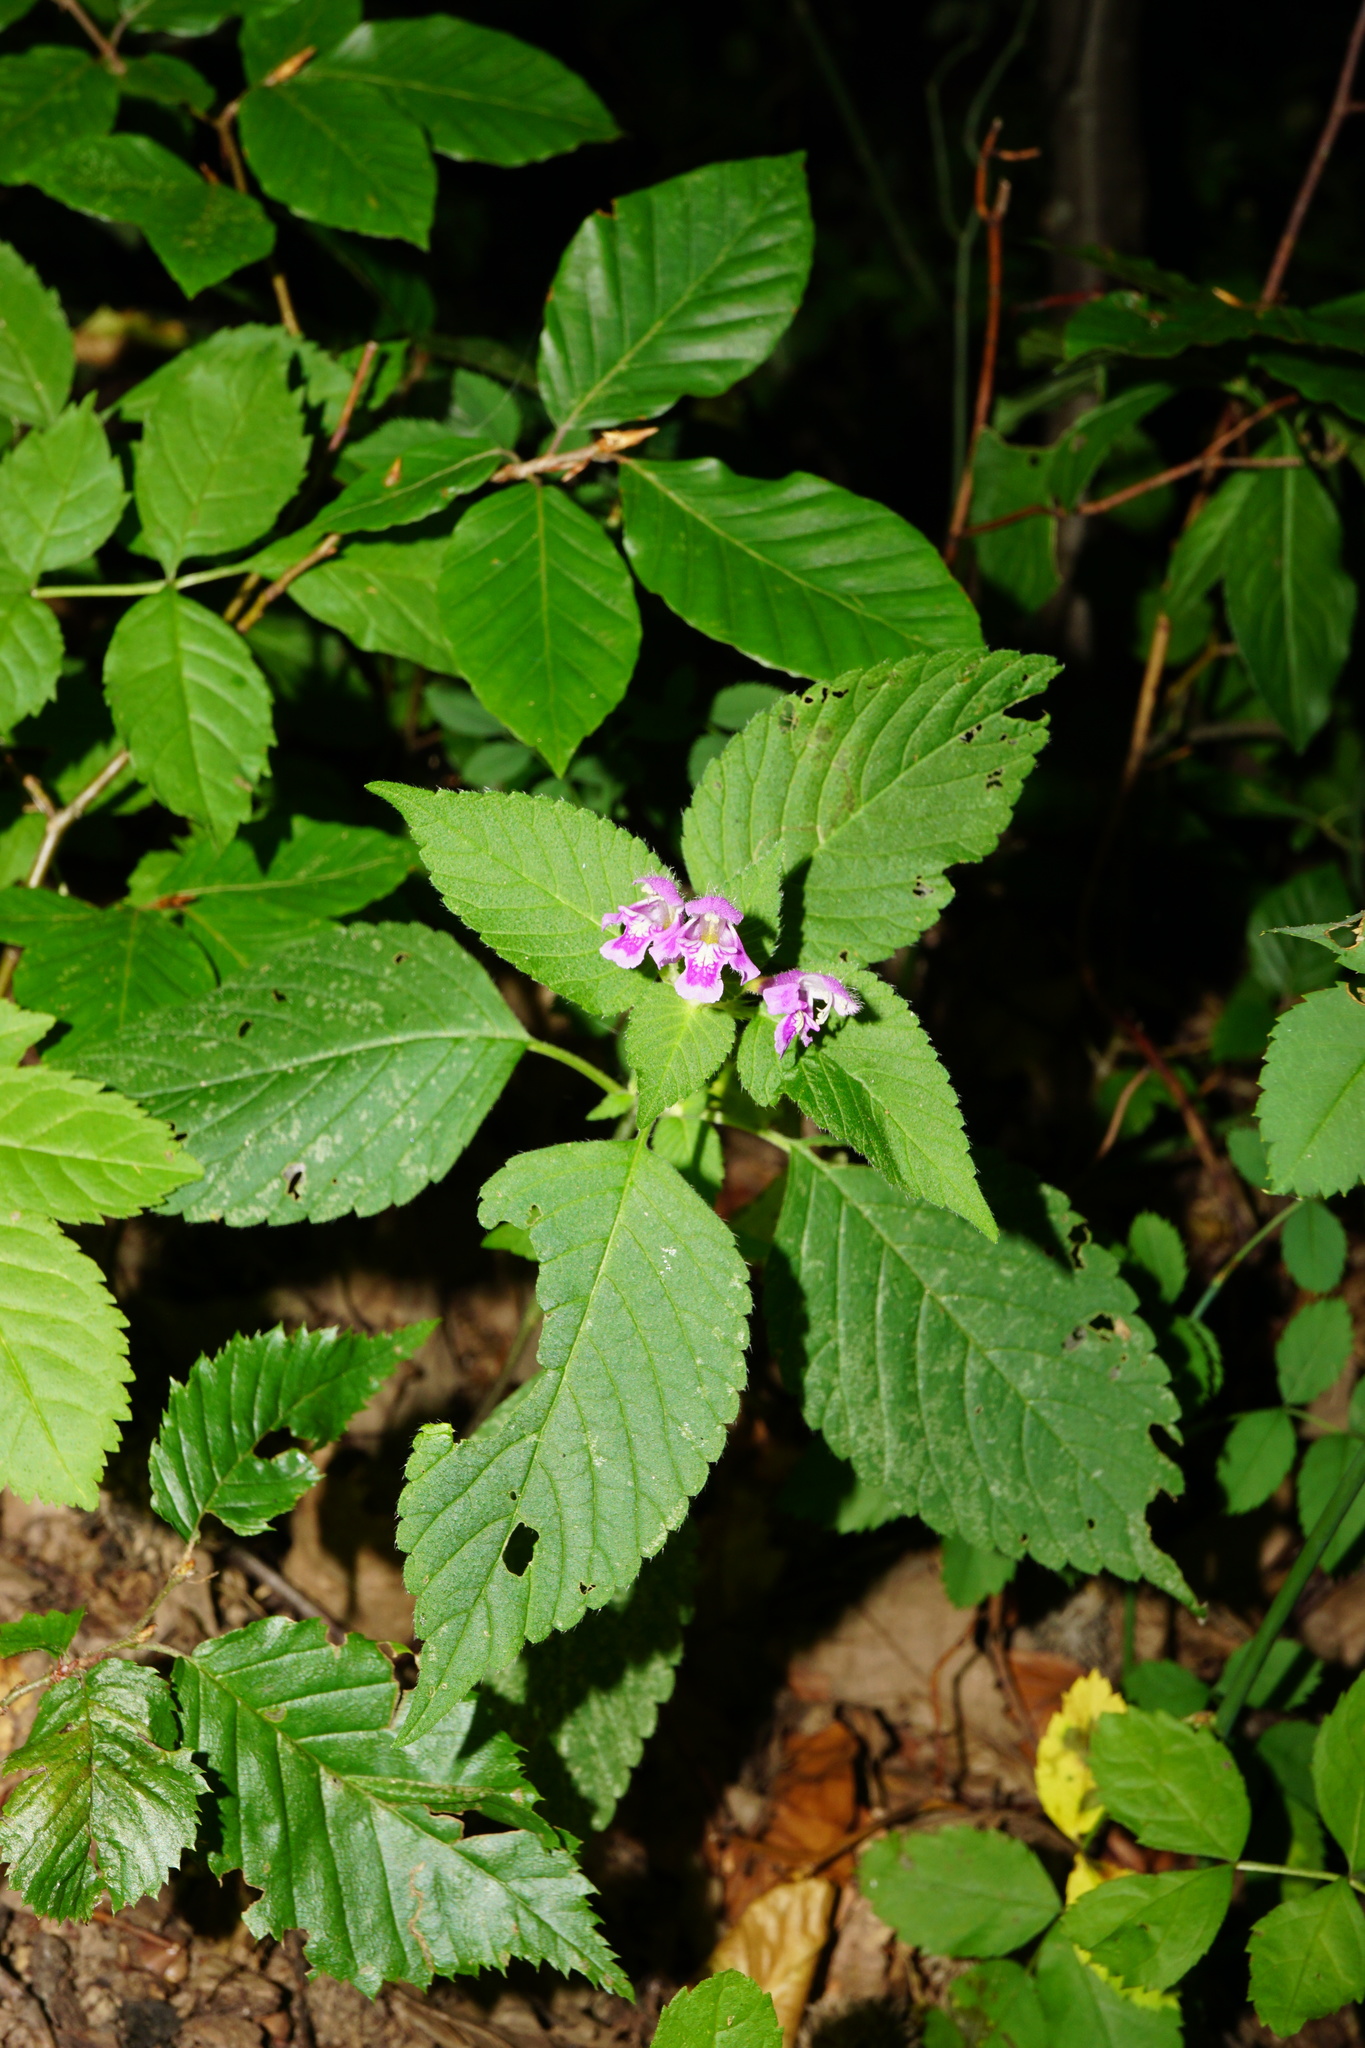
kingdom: Plantae
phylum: Tracheophyta
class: Magnoliopsida
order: Lamiales
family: Lamiaceae
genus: Galeopsis
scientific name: Galeopsis pubescens
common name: Downy hemp-nettle
